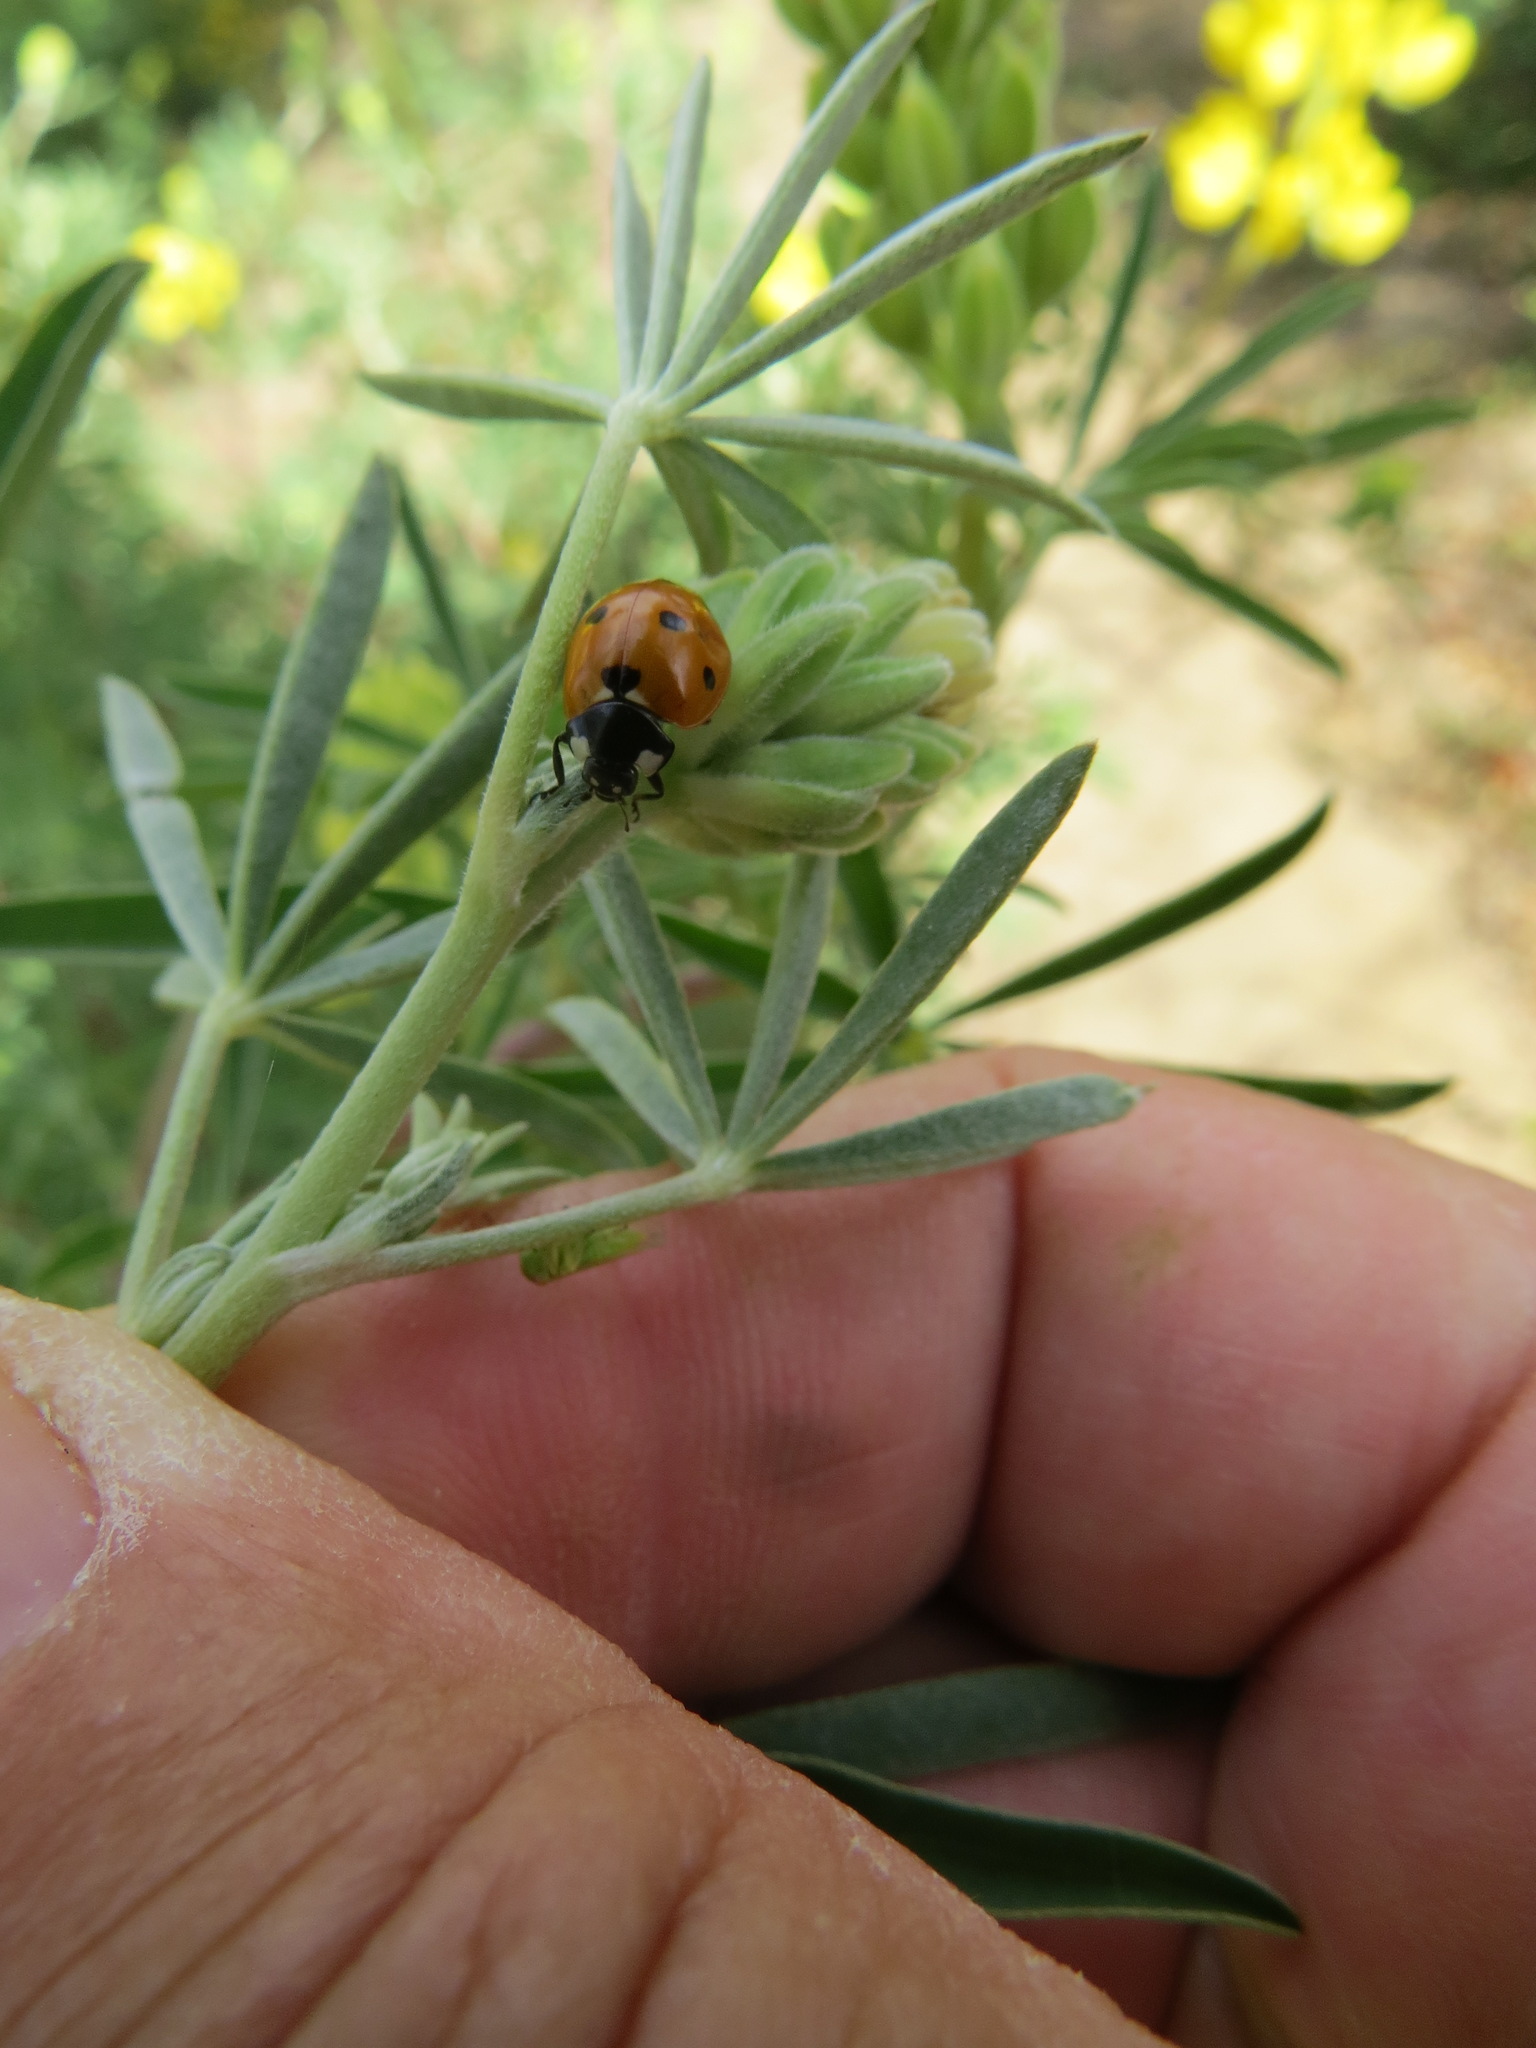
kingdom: Animalia
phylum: Arthropoda
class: Insecta
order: Coleoptera
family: Coccinellidae
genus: Coccinella
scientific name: Coccinella septempunctata
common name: Sevenspotted lady beetle
